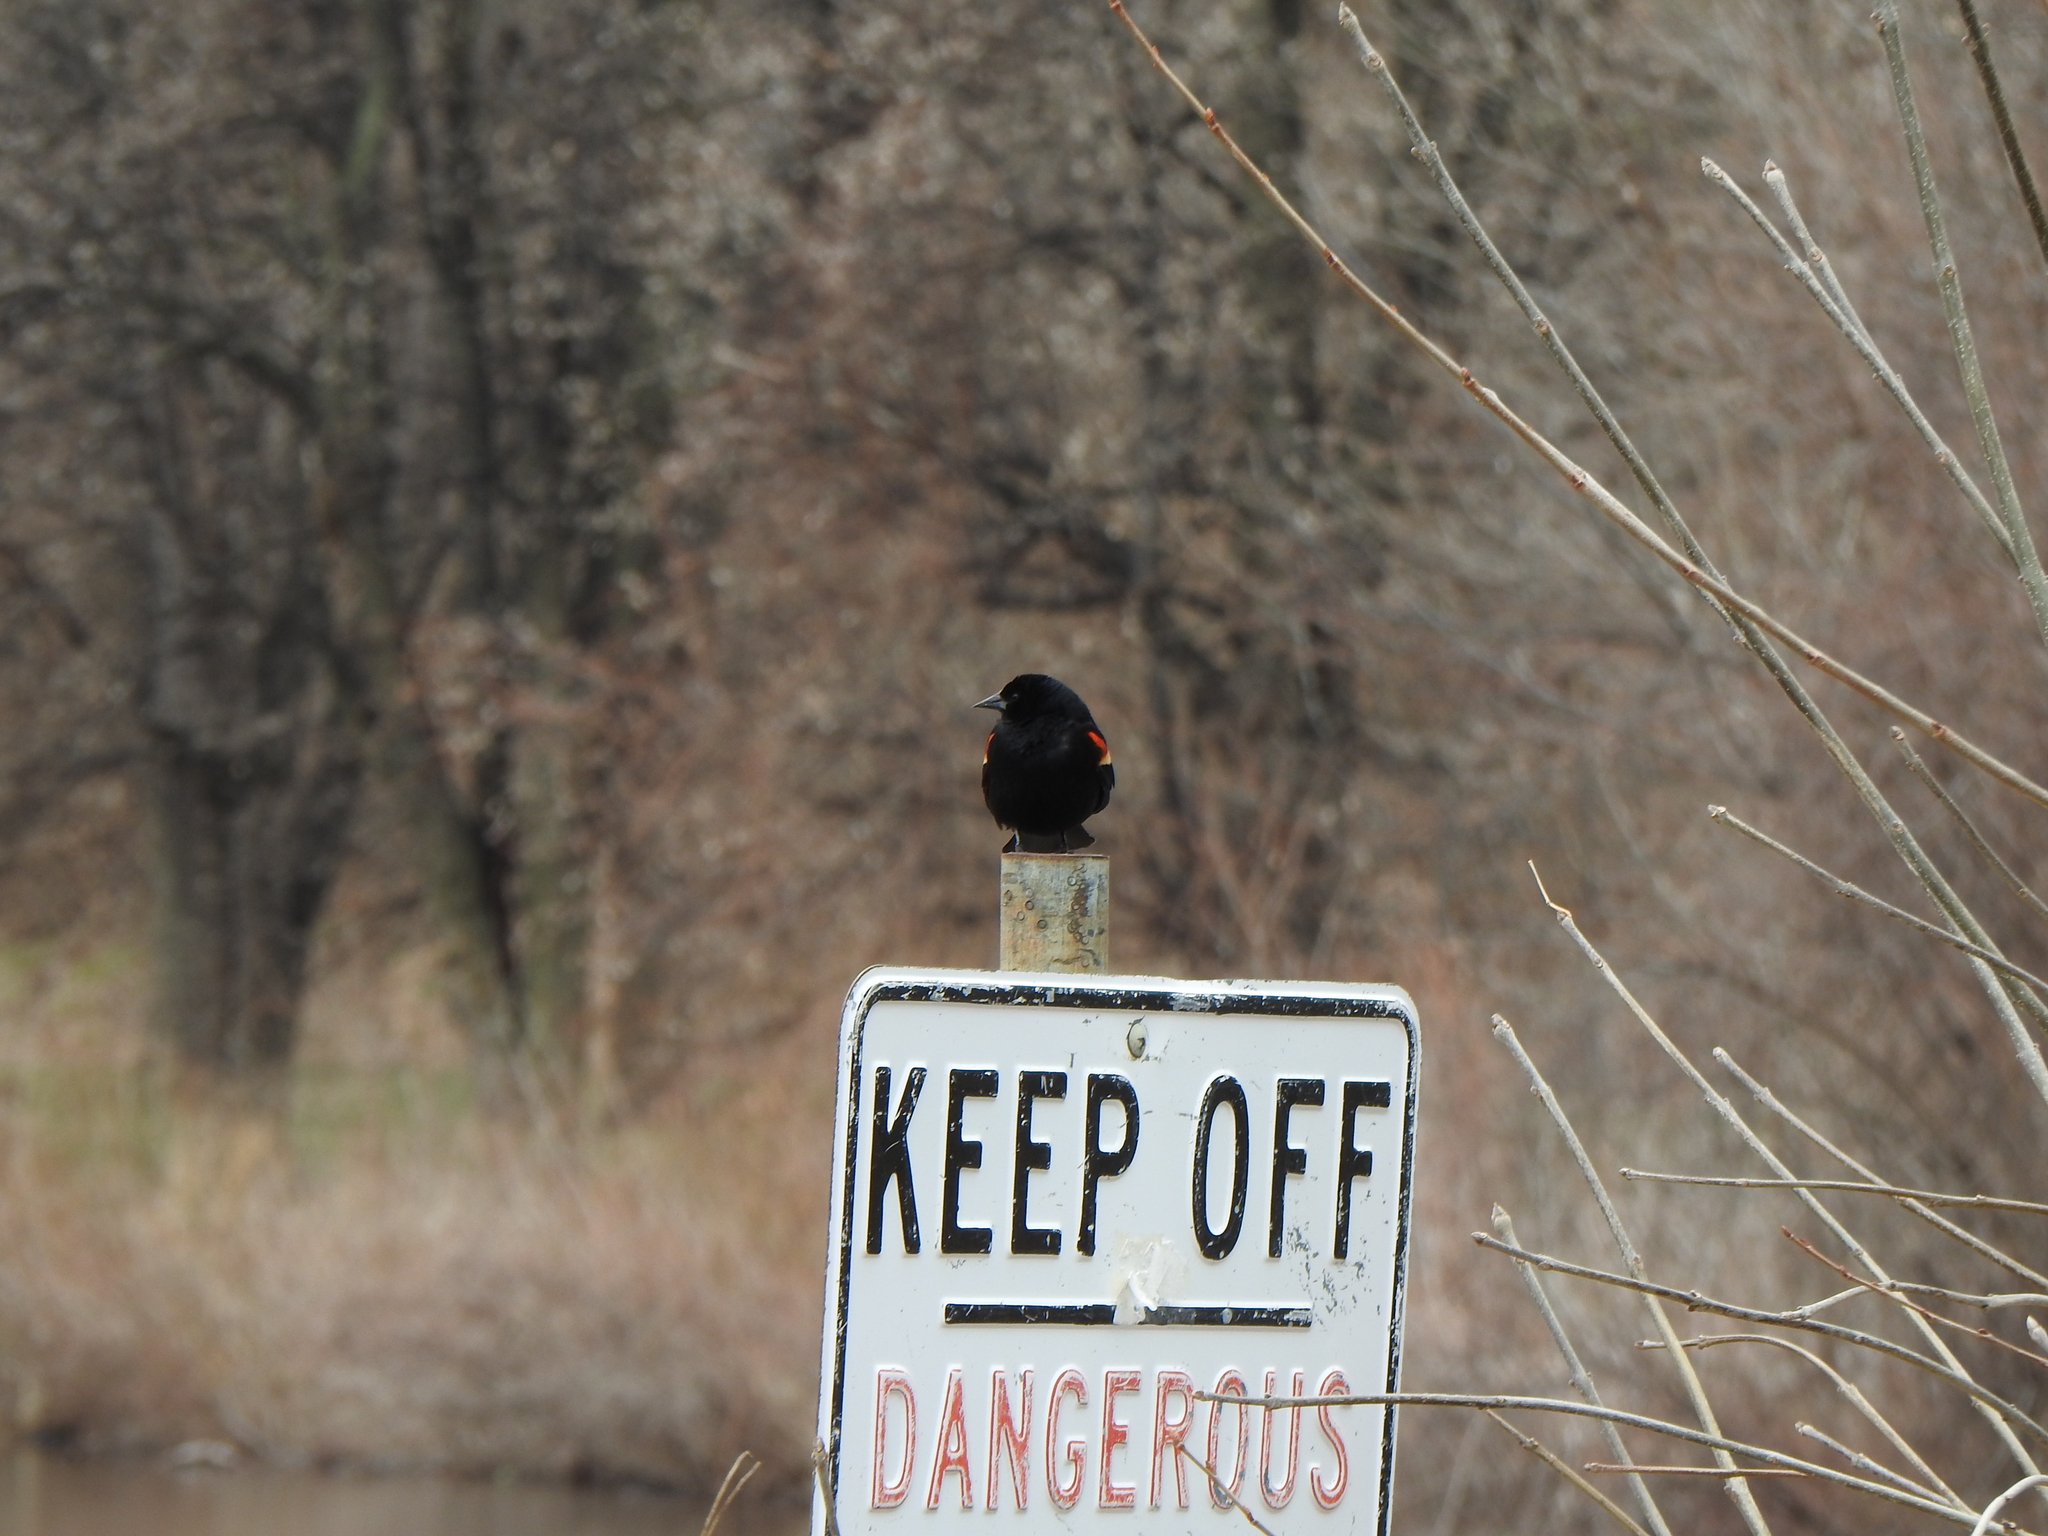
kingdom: Animalia
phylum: Chordata
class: Aves
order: Passeriformes
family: Icteridae
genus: Agelaius
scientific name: Agelaius phoeniceus
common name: Red-winged blackbird
